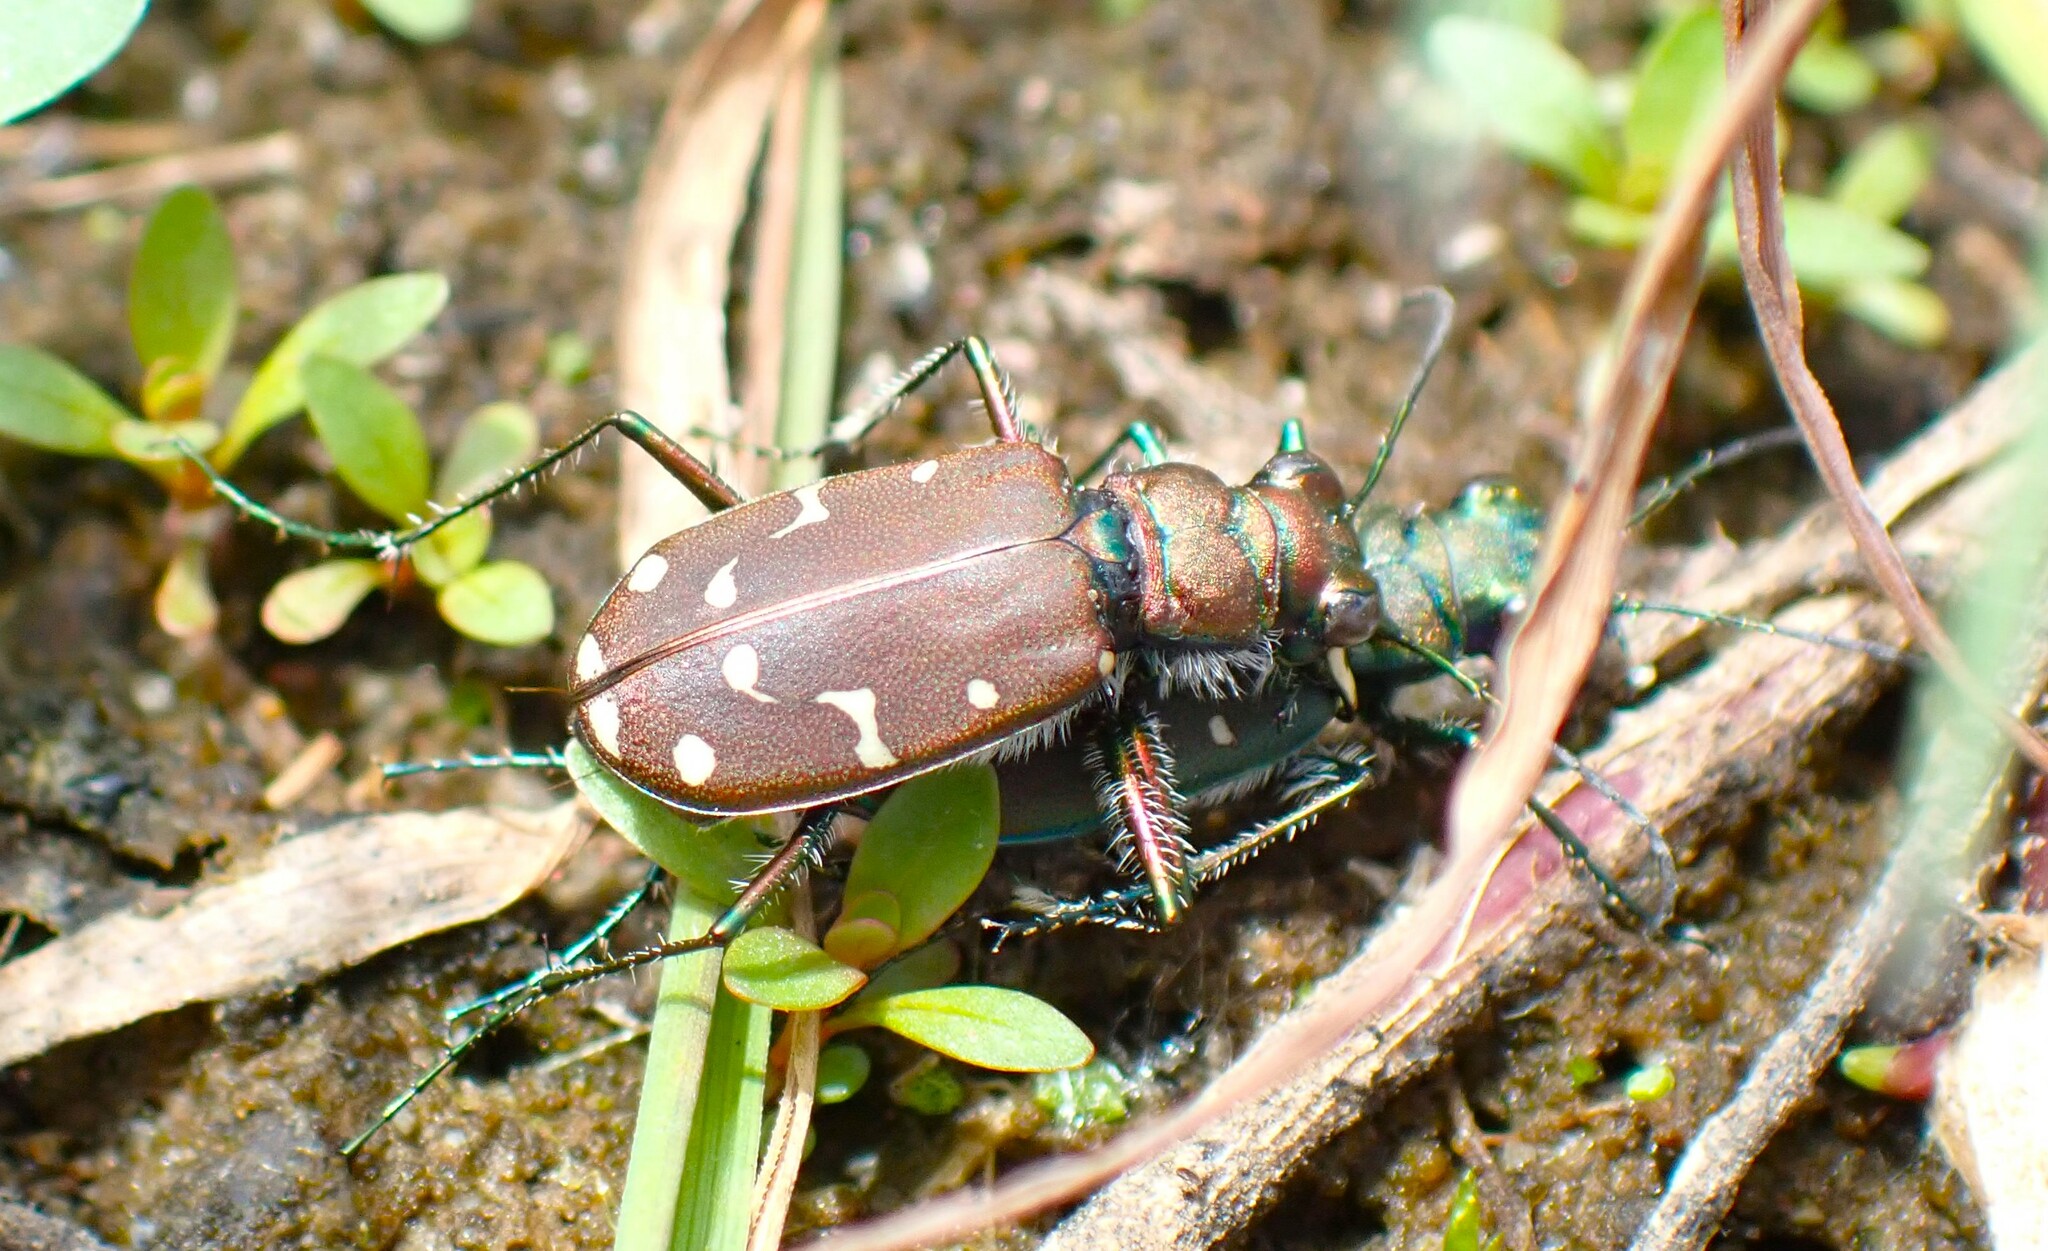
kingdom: Animalia
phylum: Arthropoda
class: Insecta
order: Coleoptera
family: Carabidae
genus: Cicindela
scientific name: Cicindela oregona
